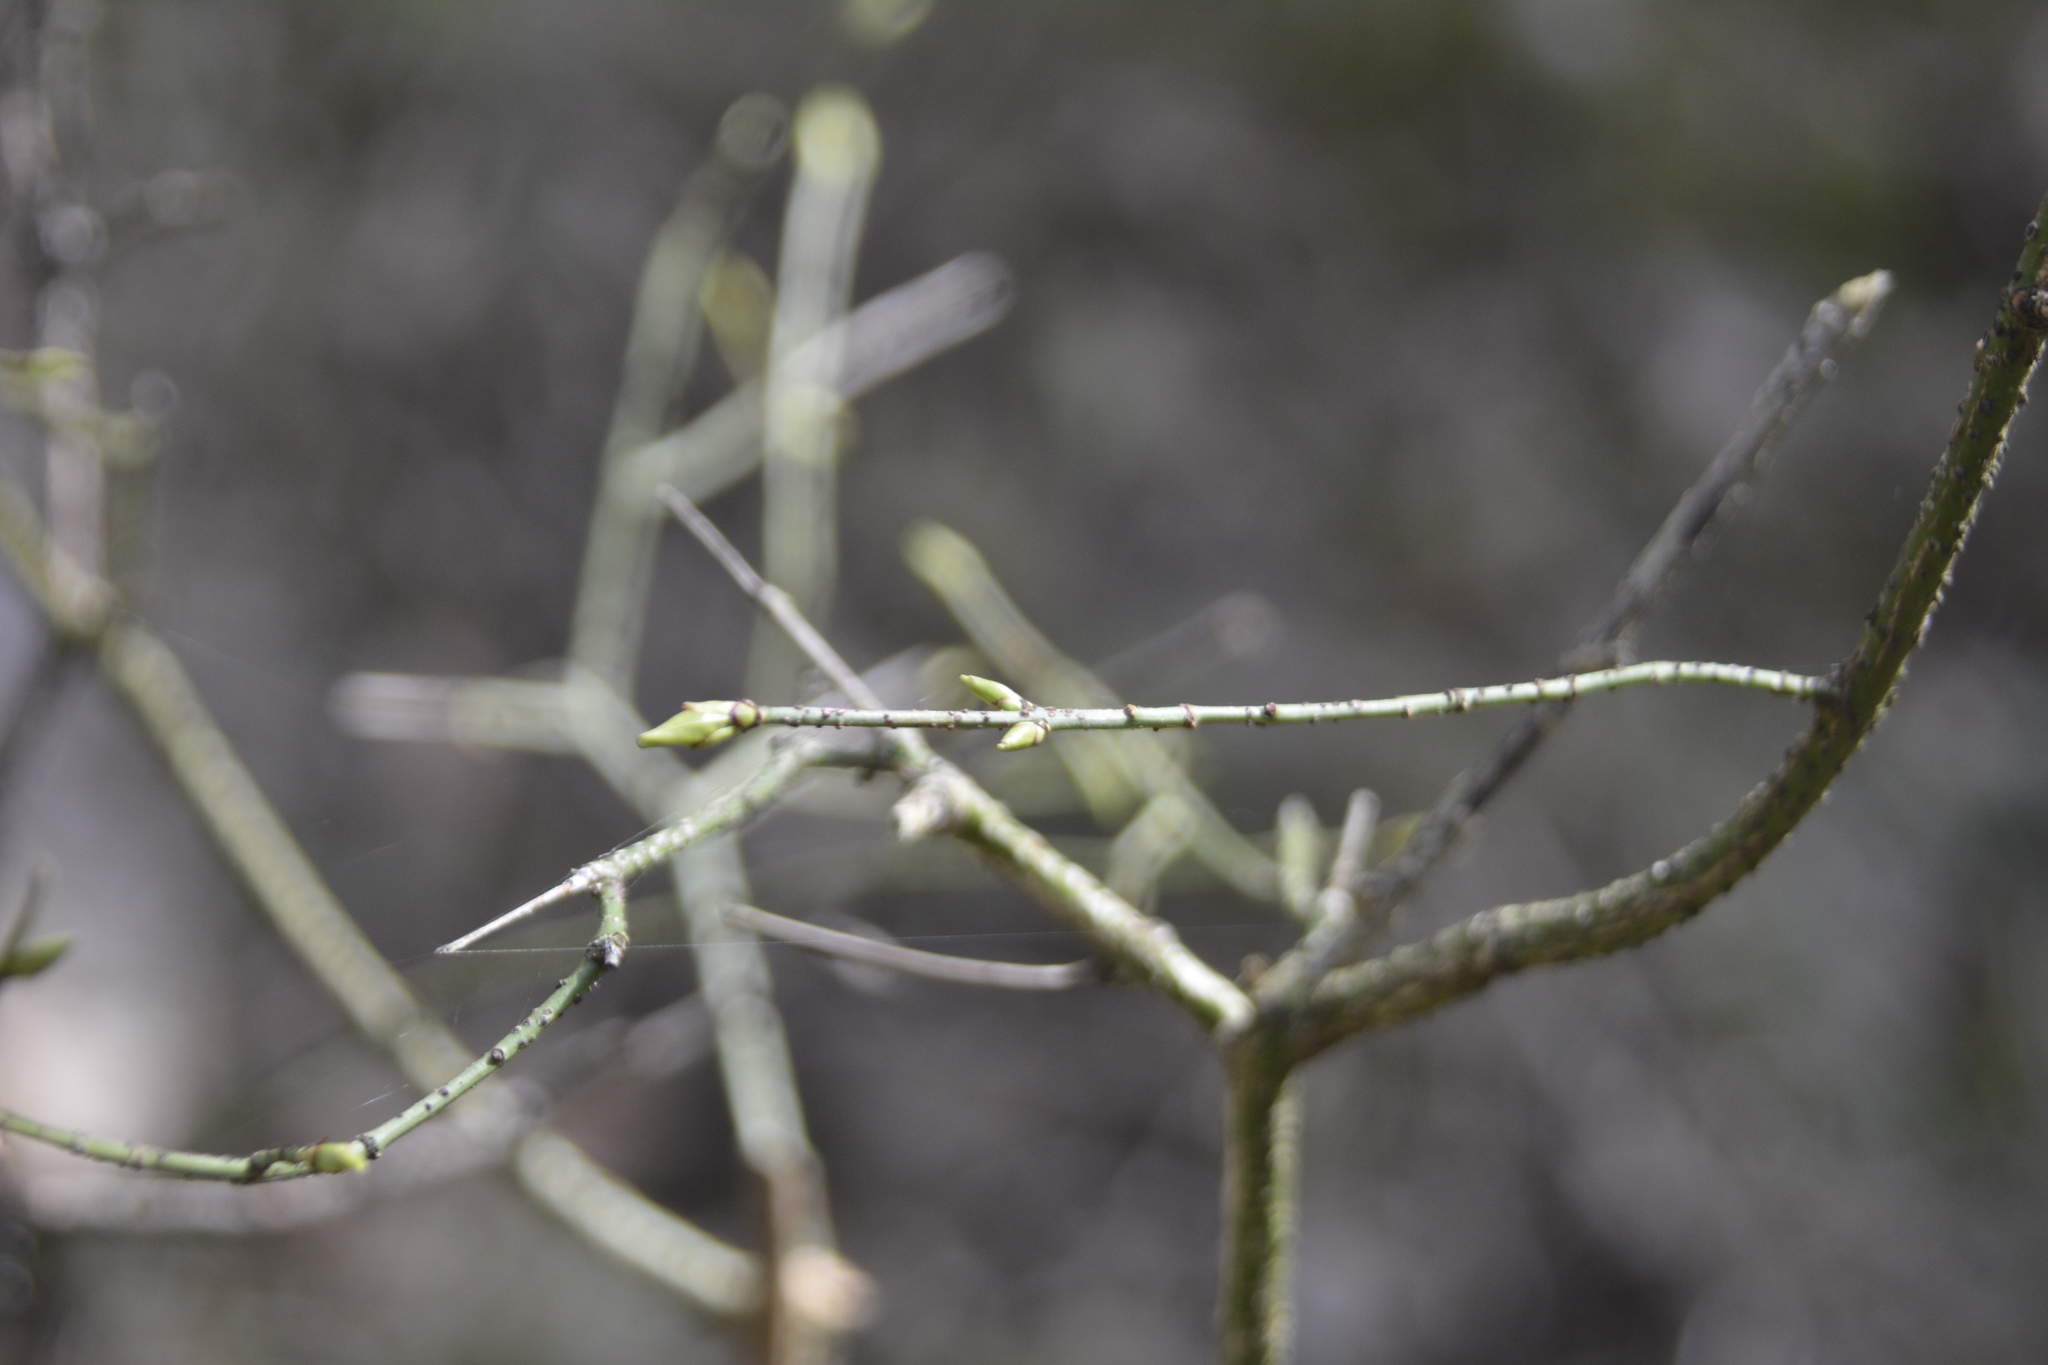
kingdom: Plantae
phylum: Tracheophyta
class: Magnoliopsida
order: Celastrales
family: Celastraceae
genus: Euonymus
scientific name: Euonymus verrucosus
